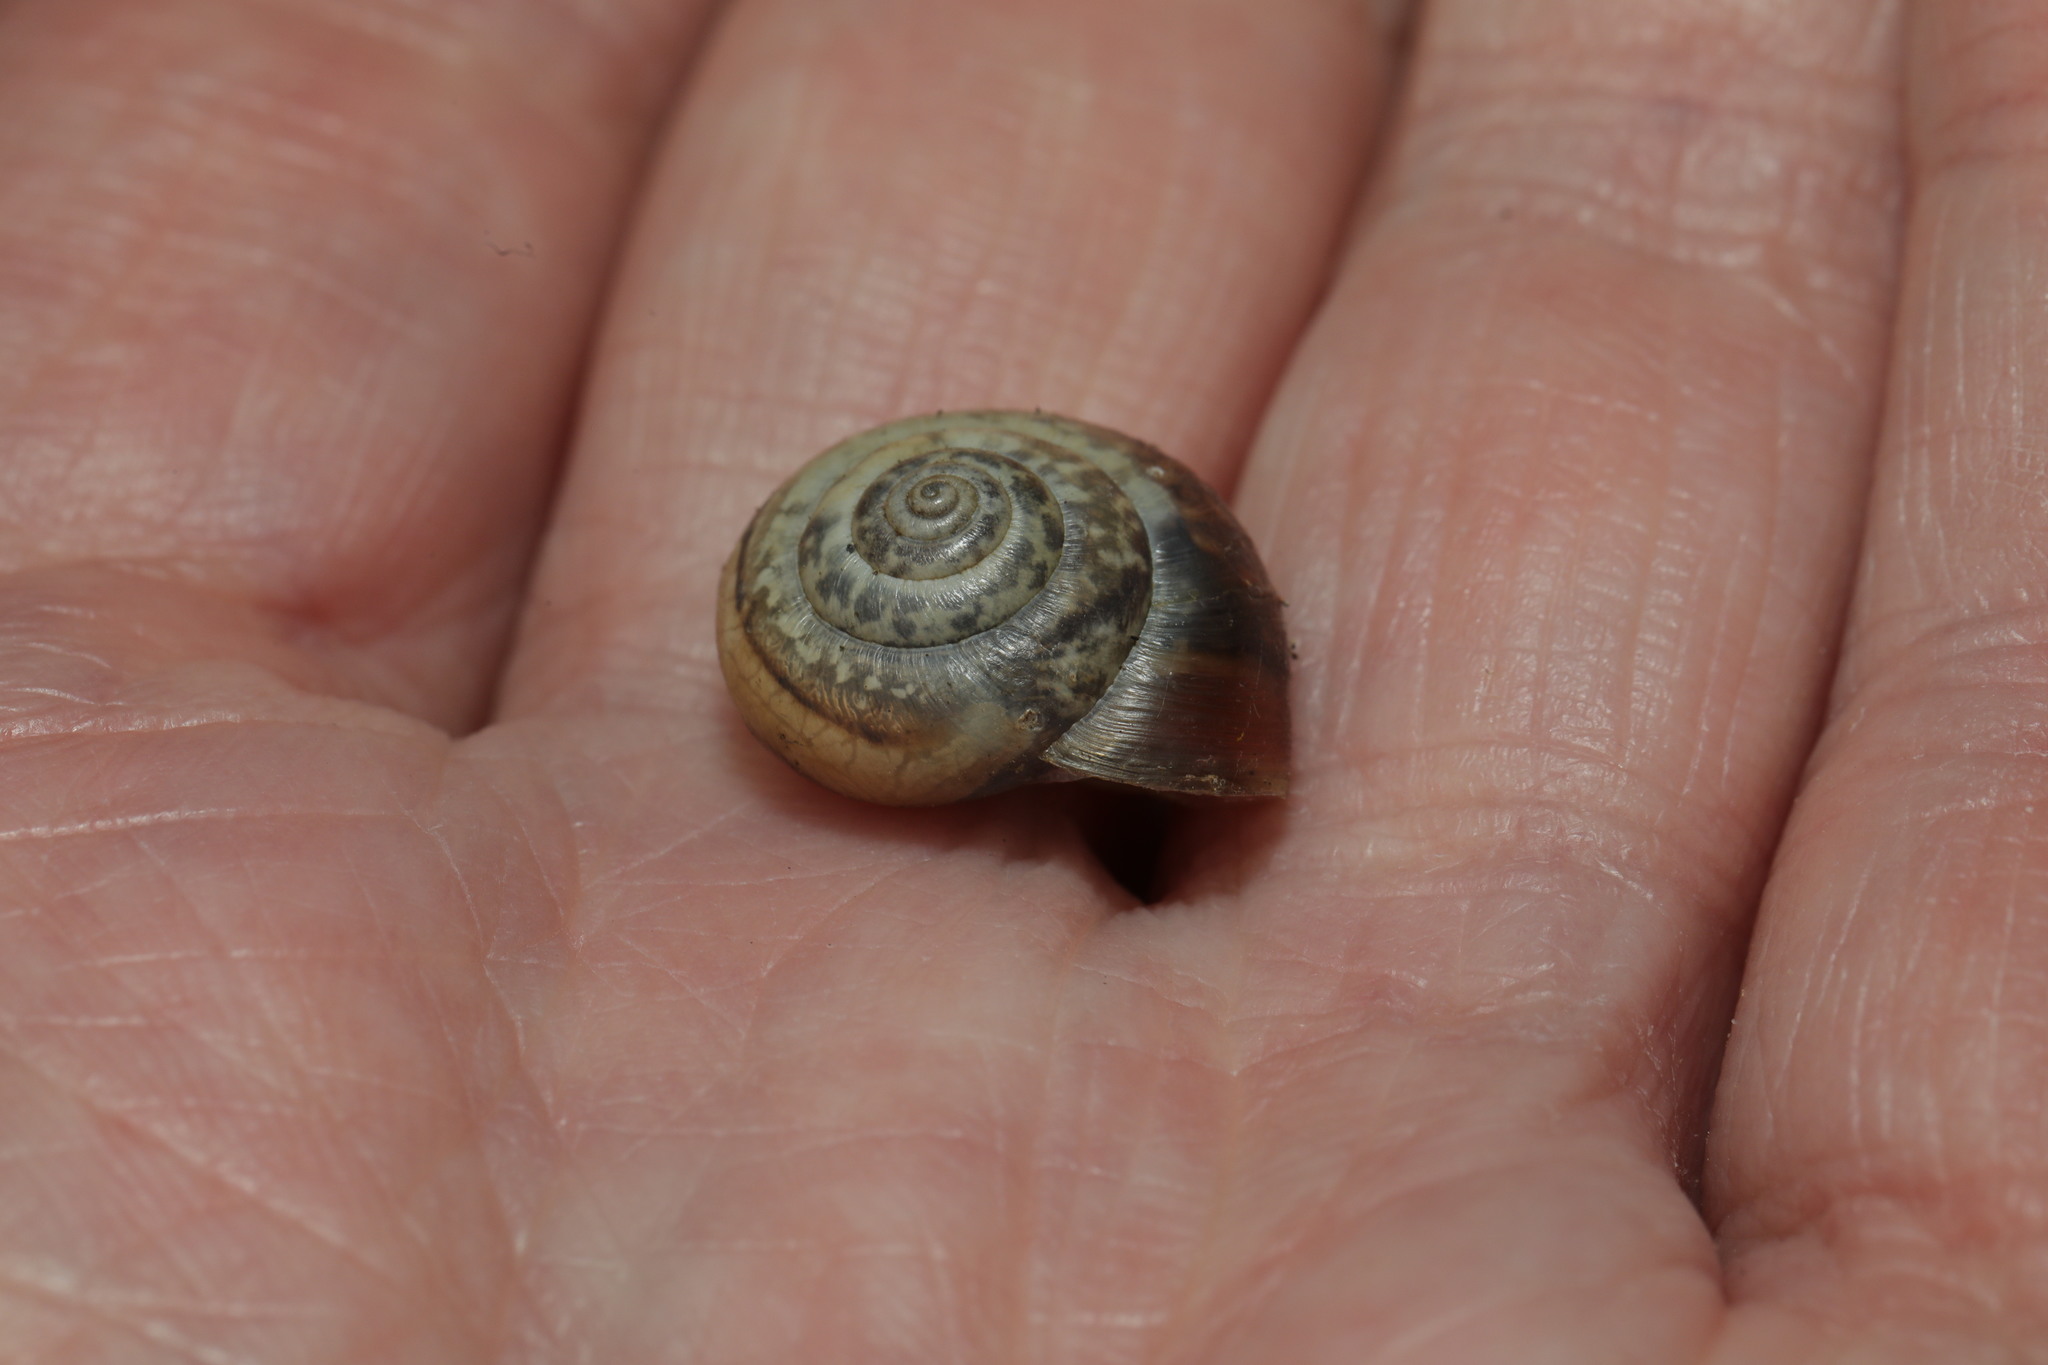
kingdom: Animalia
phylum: Mollusca
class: Gastropoda
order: Stylommatophora
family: Hygromiidae
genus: Monacha
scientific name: Monacha cantiana
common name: Kentish snail
